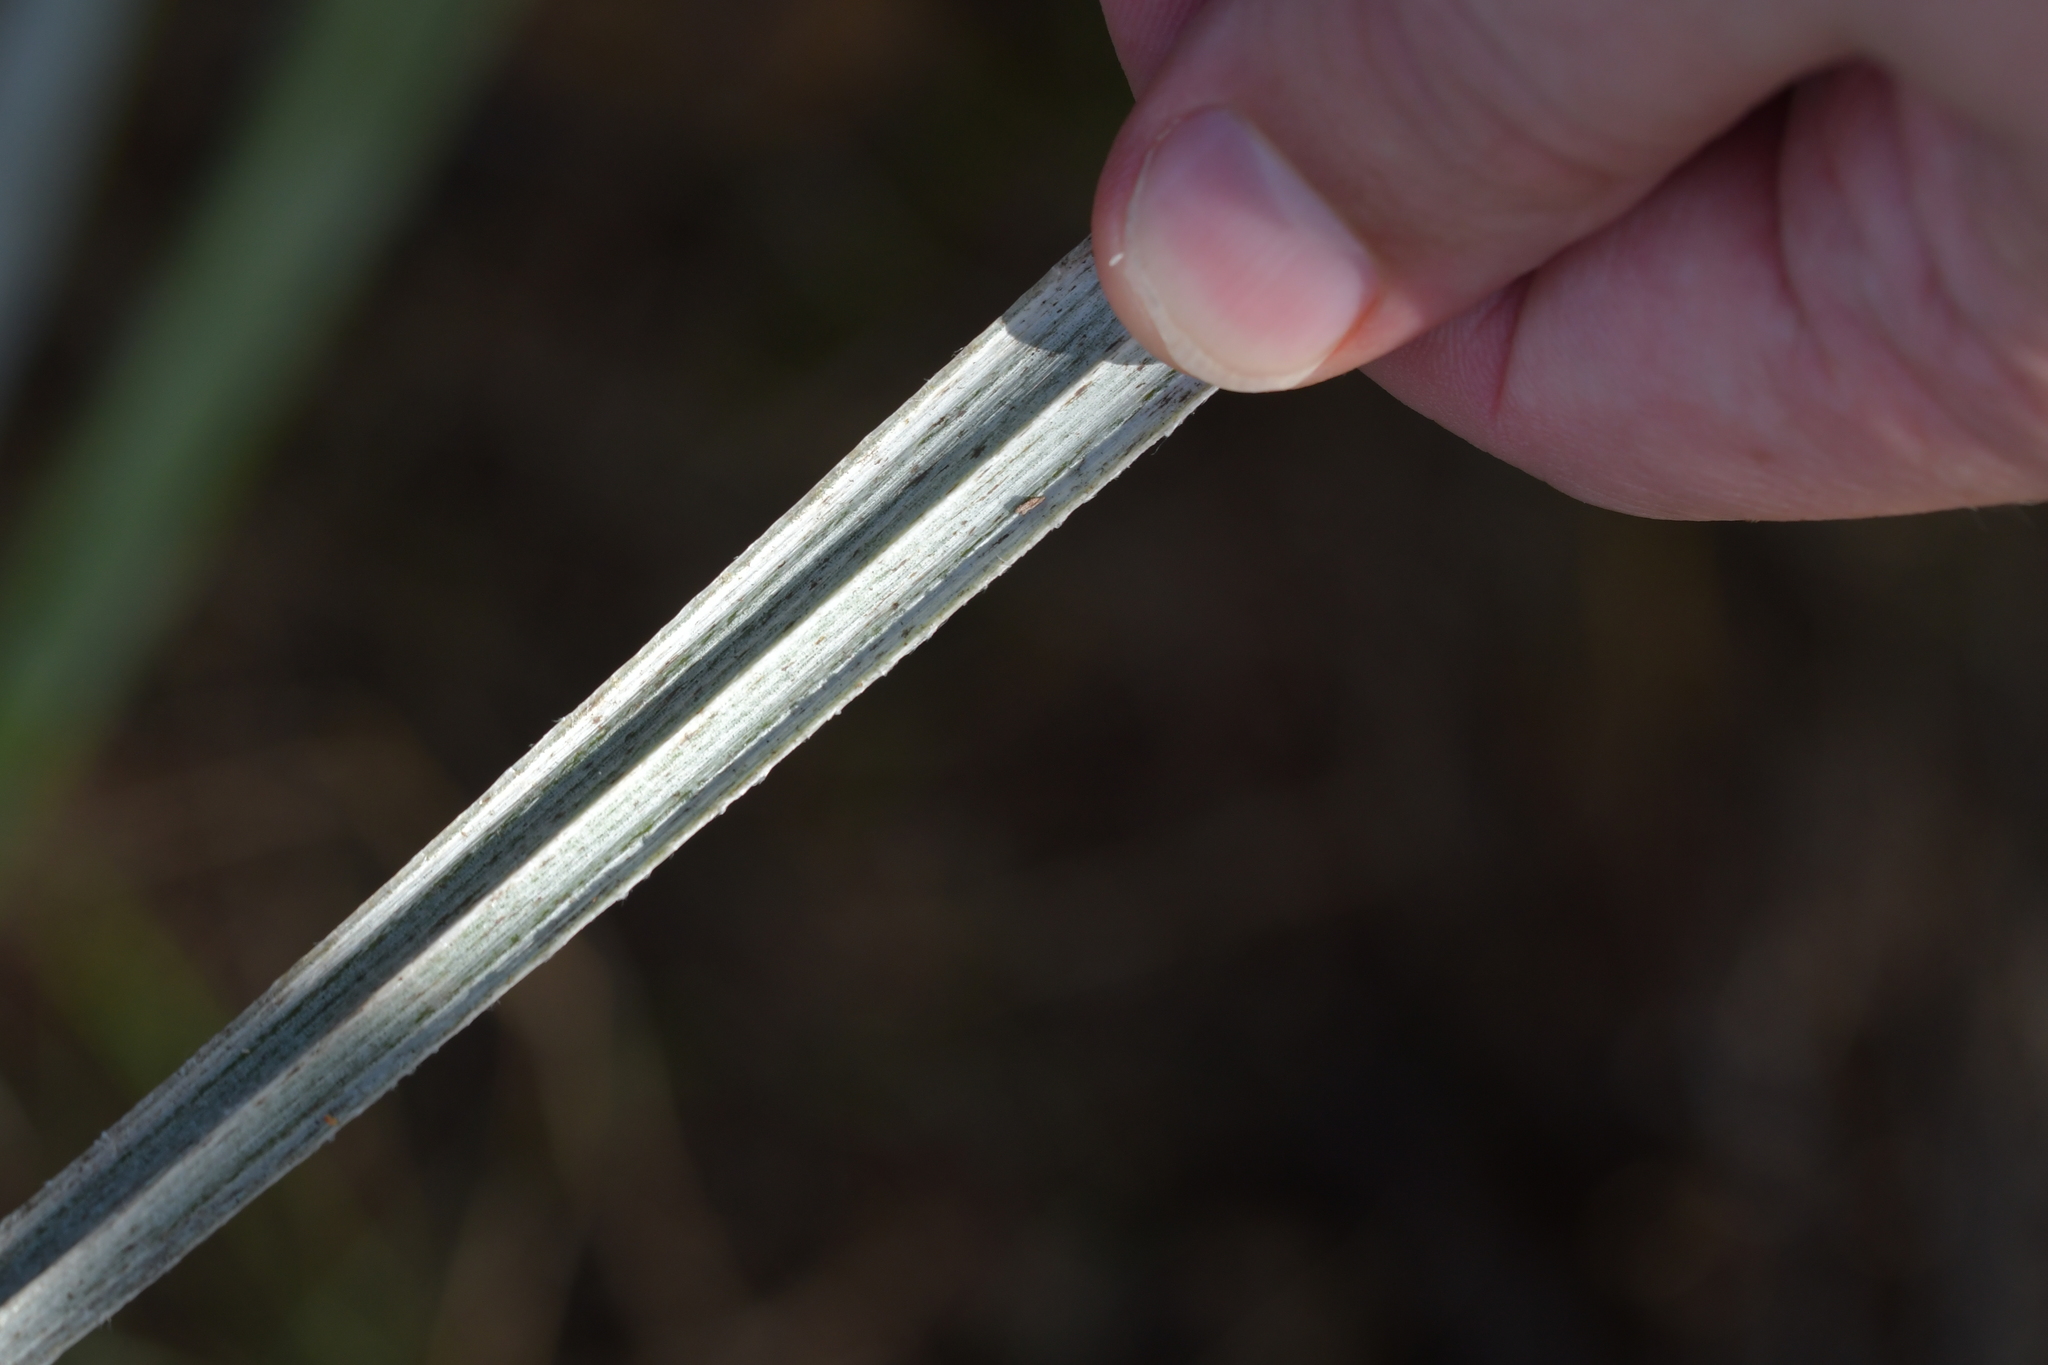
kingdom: Plantae
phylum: Tracheophyta
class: Liliopsida
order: Asparagales
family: Asteliaceae
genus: Astelia
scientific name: Astelia banksii
